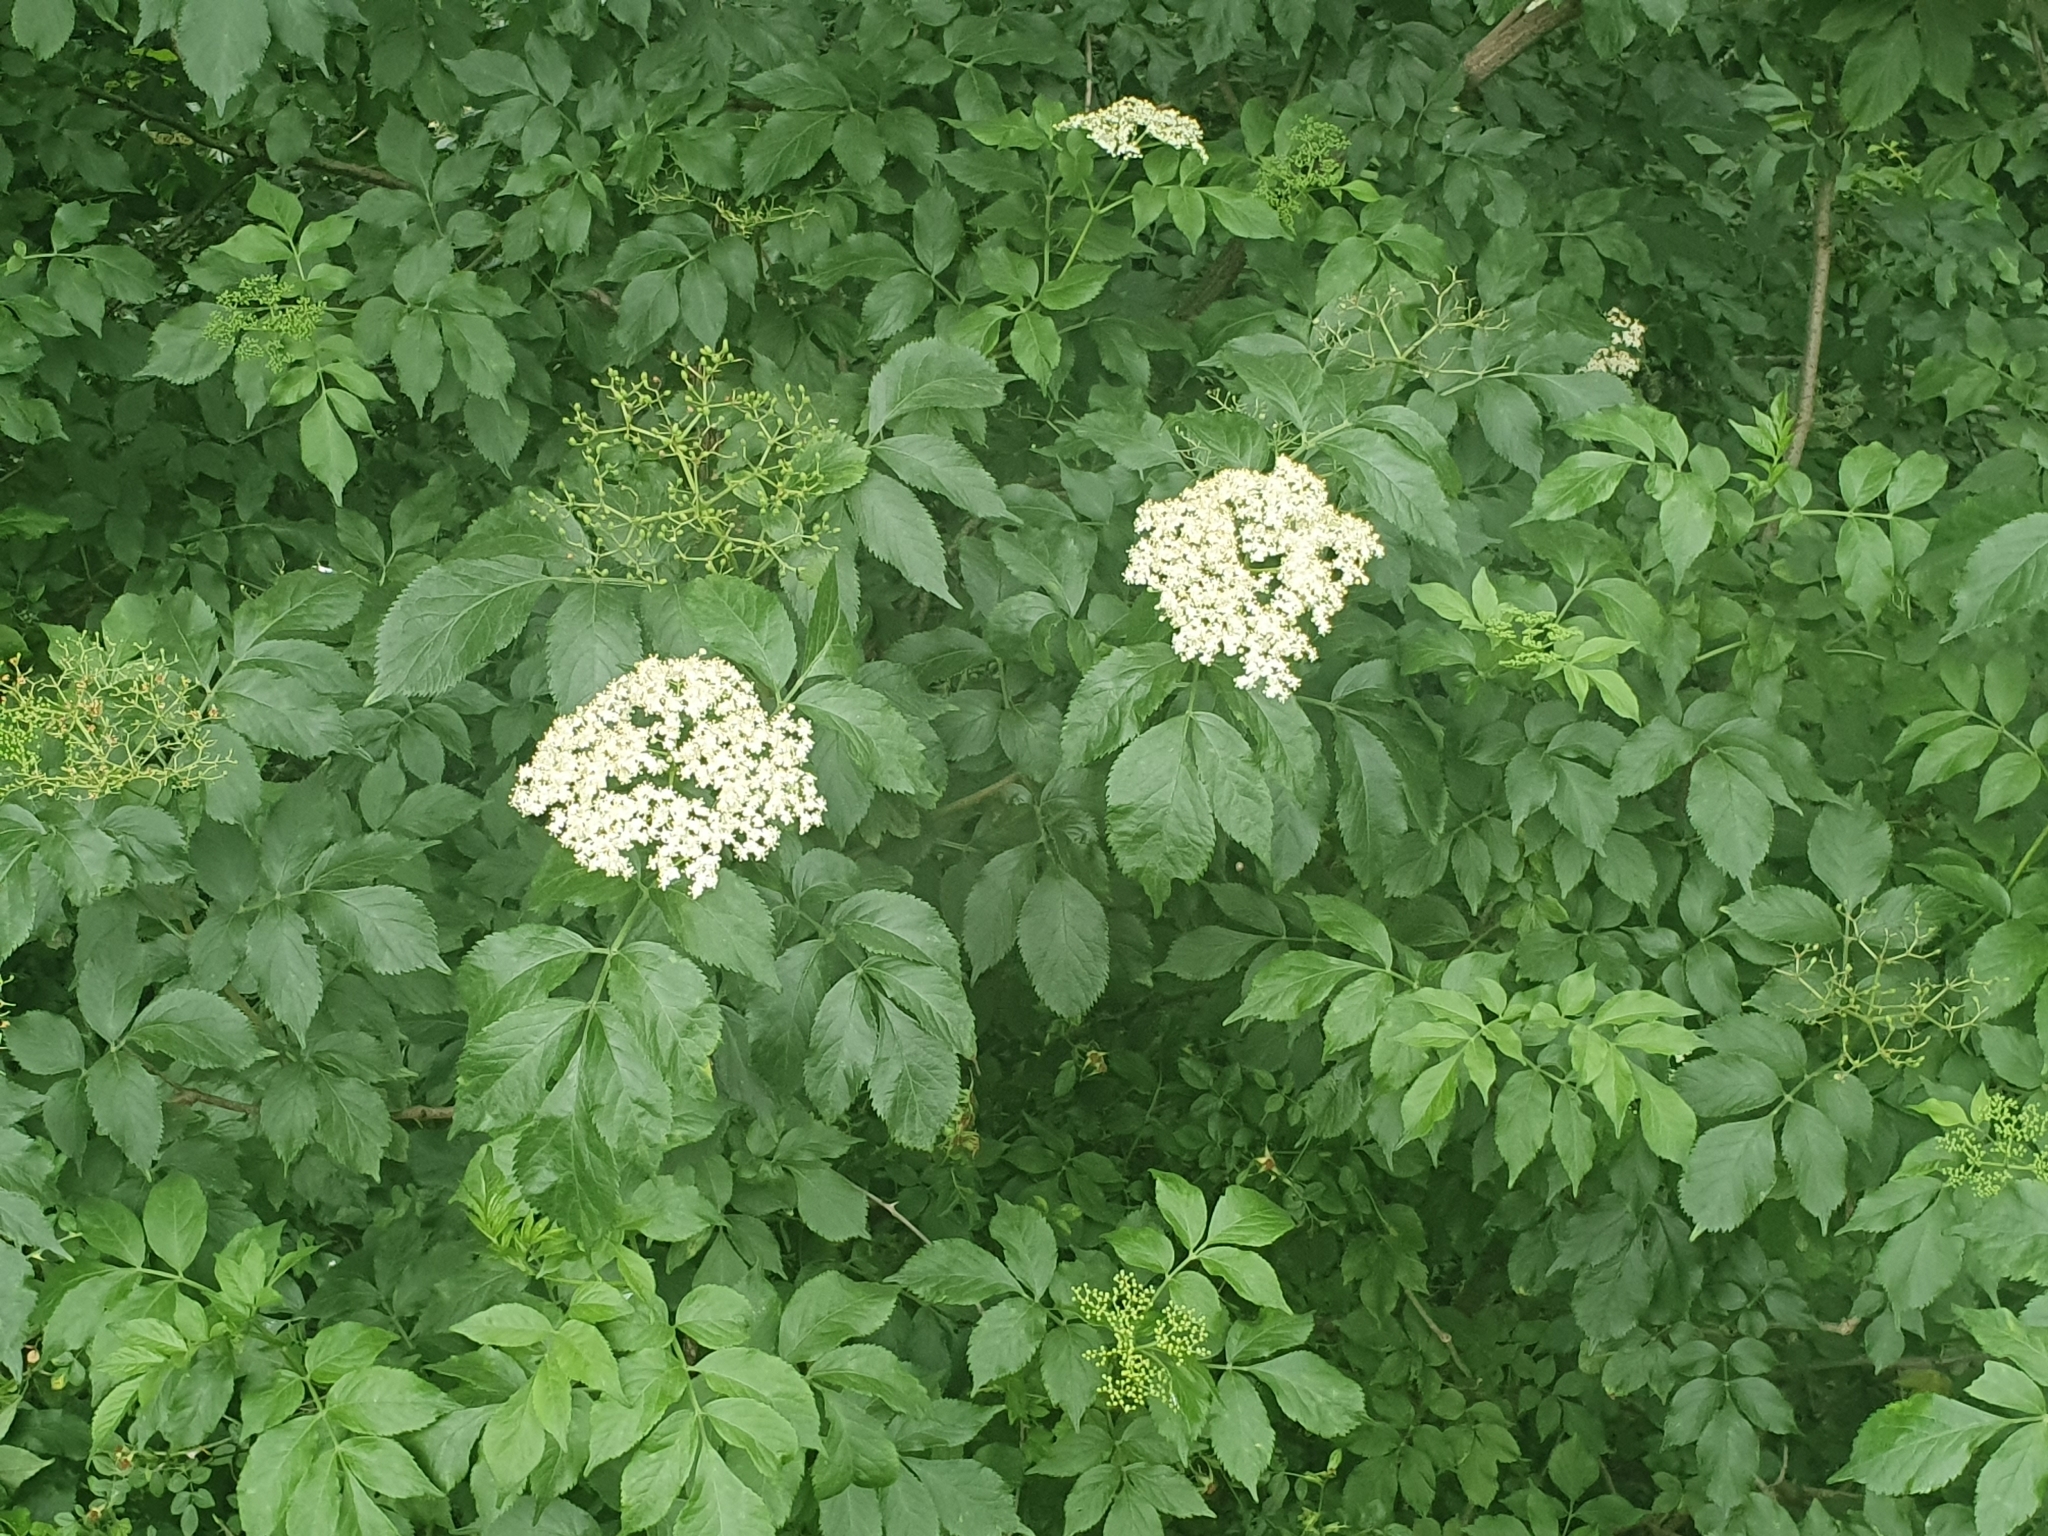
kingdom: Plantae
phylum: Tracheophyta
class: Magnoliopsida
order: Dipsacales
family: Viburnaceae
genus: Sambucus
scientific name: Sambucus nigra
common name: Elder
